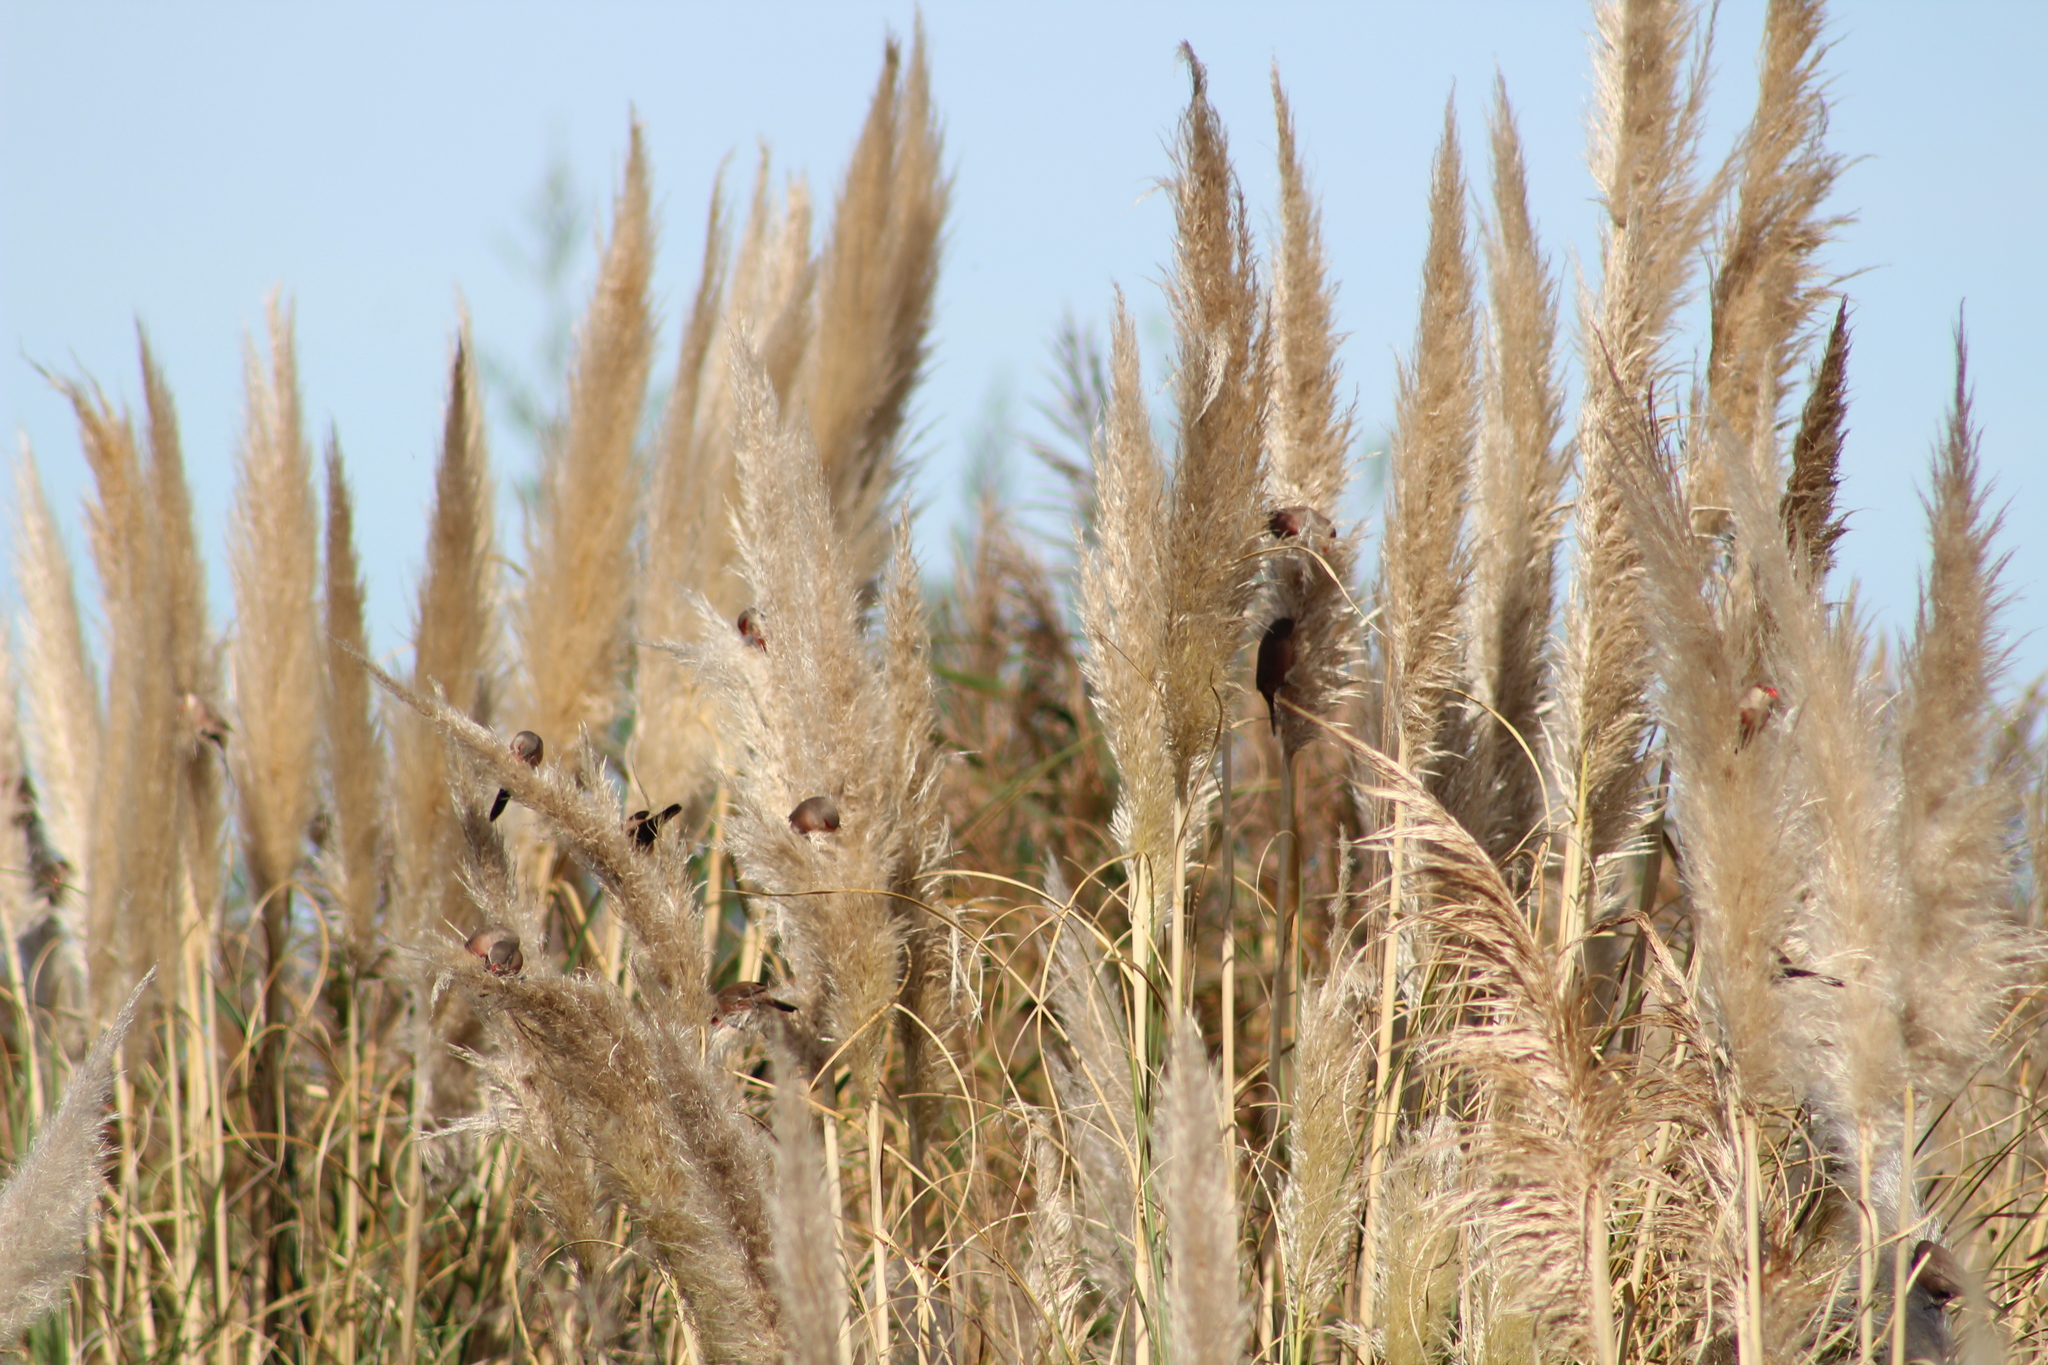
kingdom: Animalia
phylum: Chordata
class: Aves
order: Passeriformes
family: Estrildidae
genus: Estrilda
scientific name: Estrilda astrild
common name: Common waxbill
